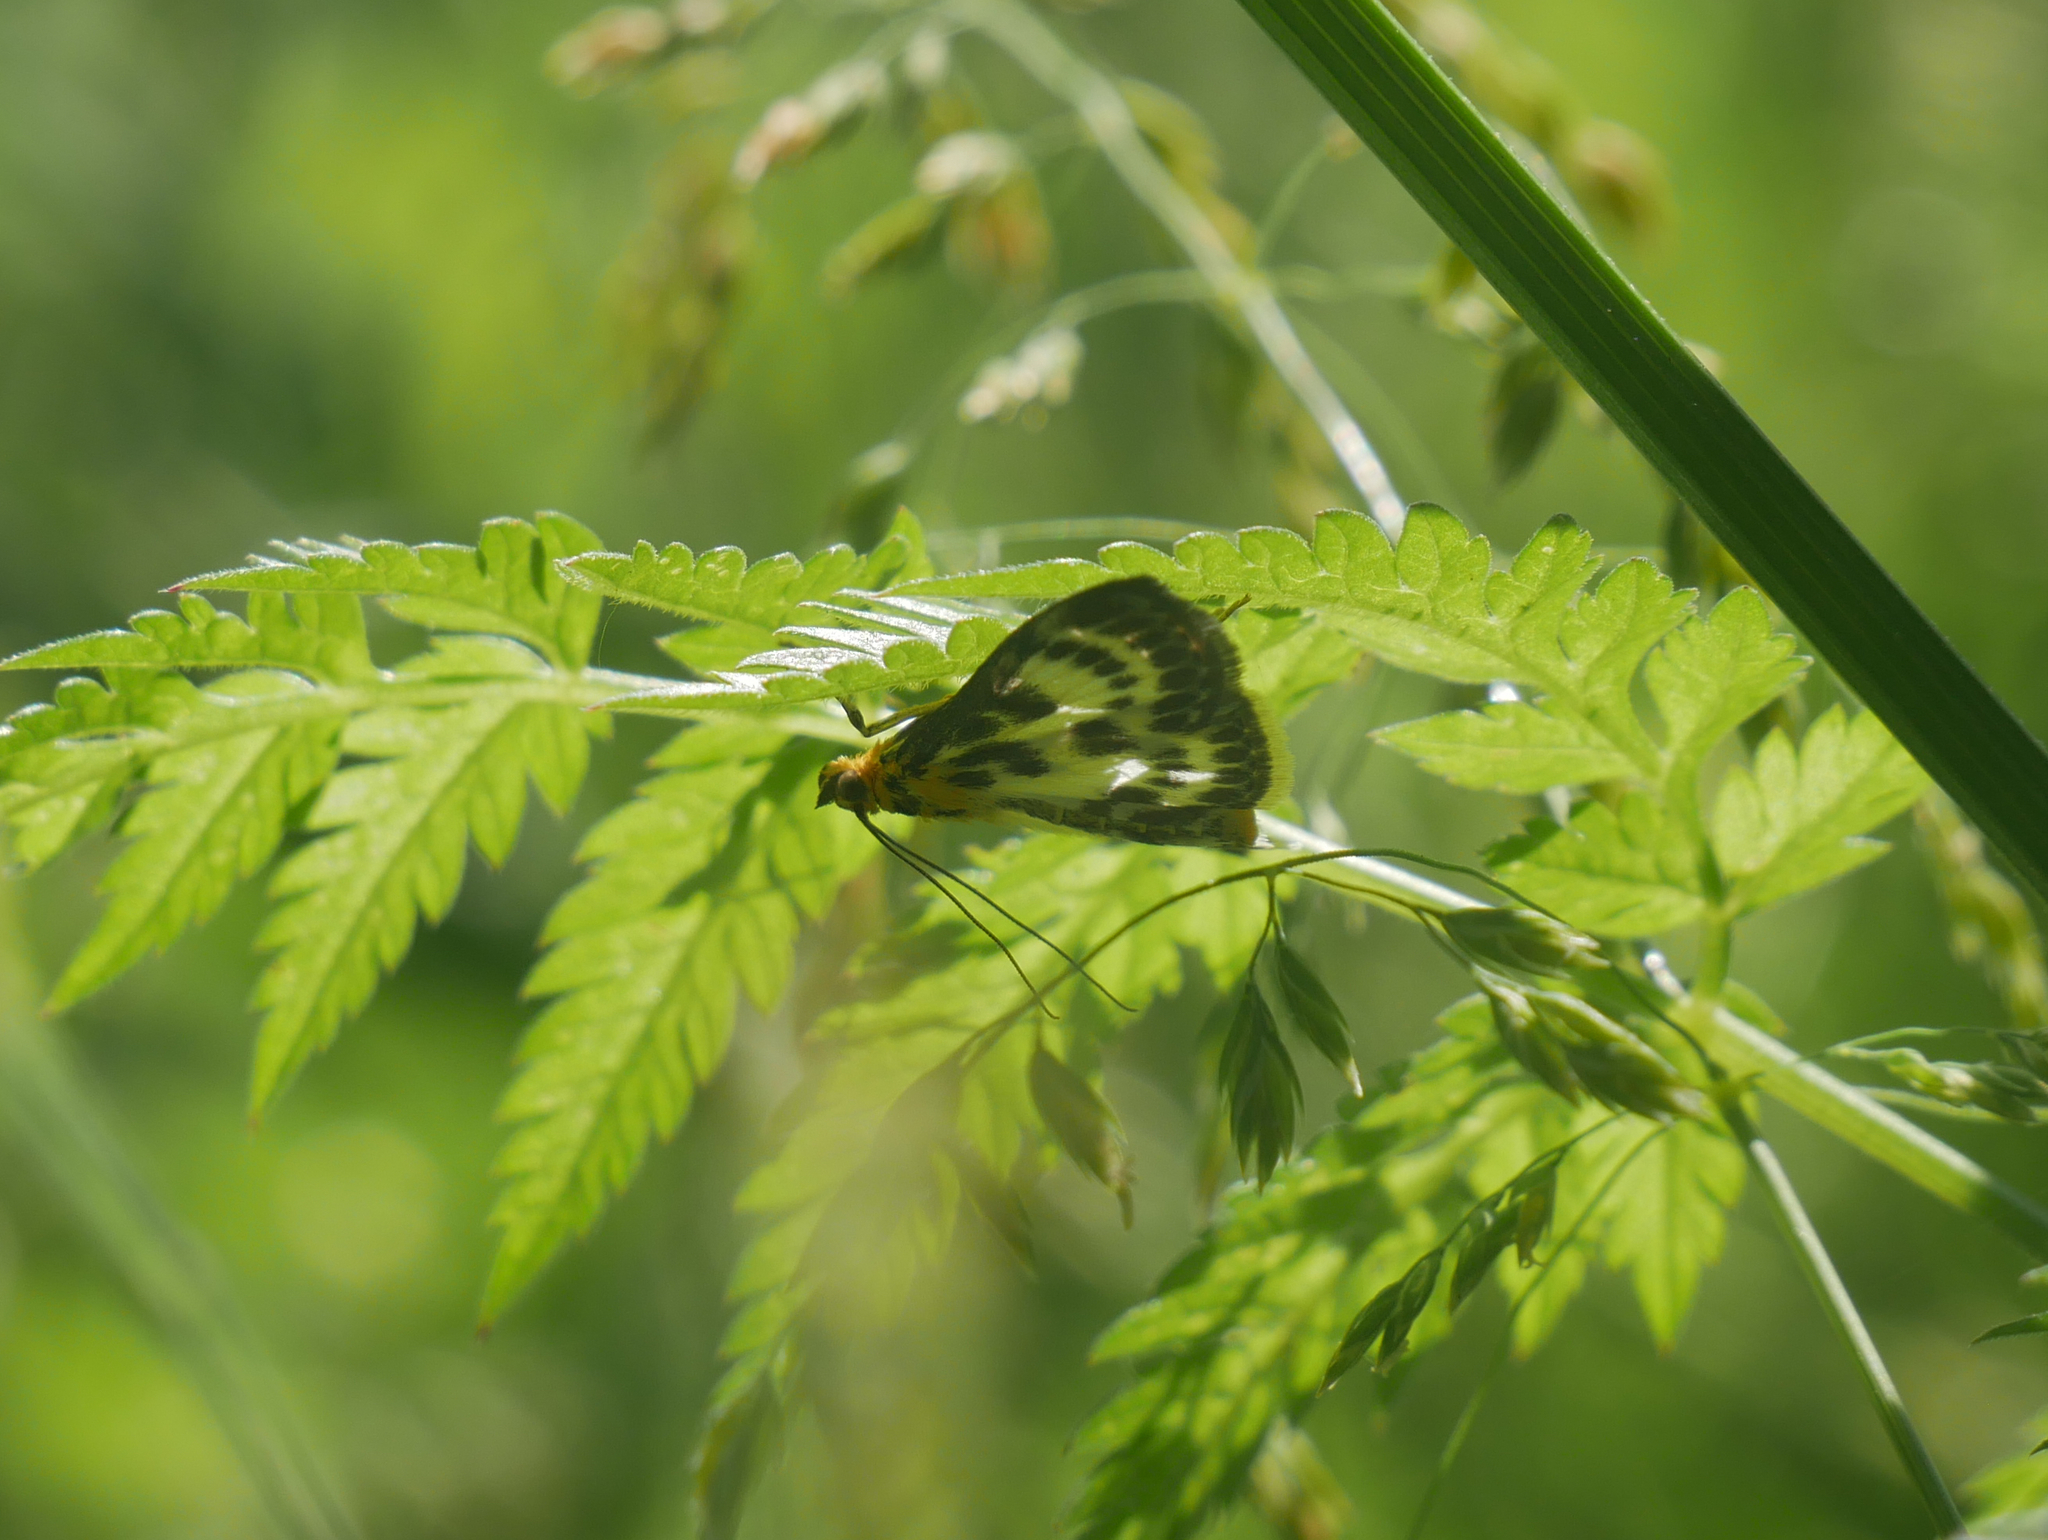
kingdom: Animalia
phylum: Arthropoda
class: Insecta
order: Lepidoptera
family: Crambidae
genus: Anania
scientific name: Anania hortulata
